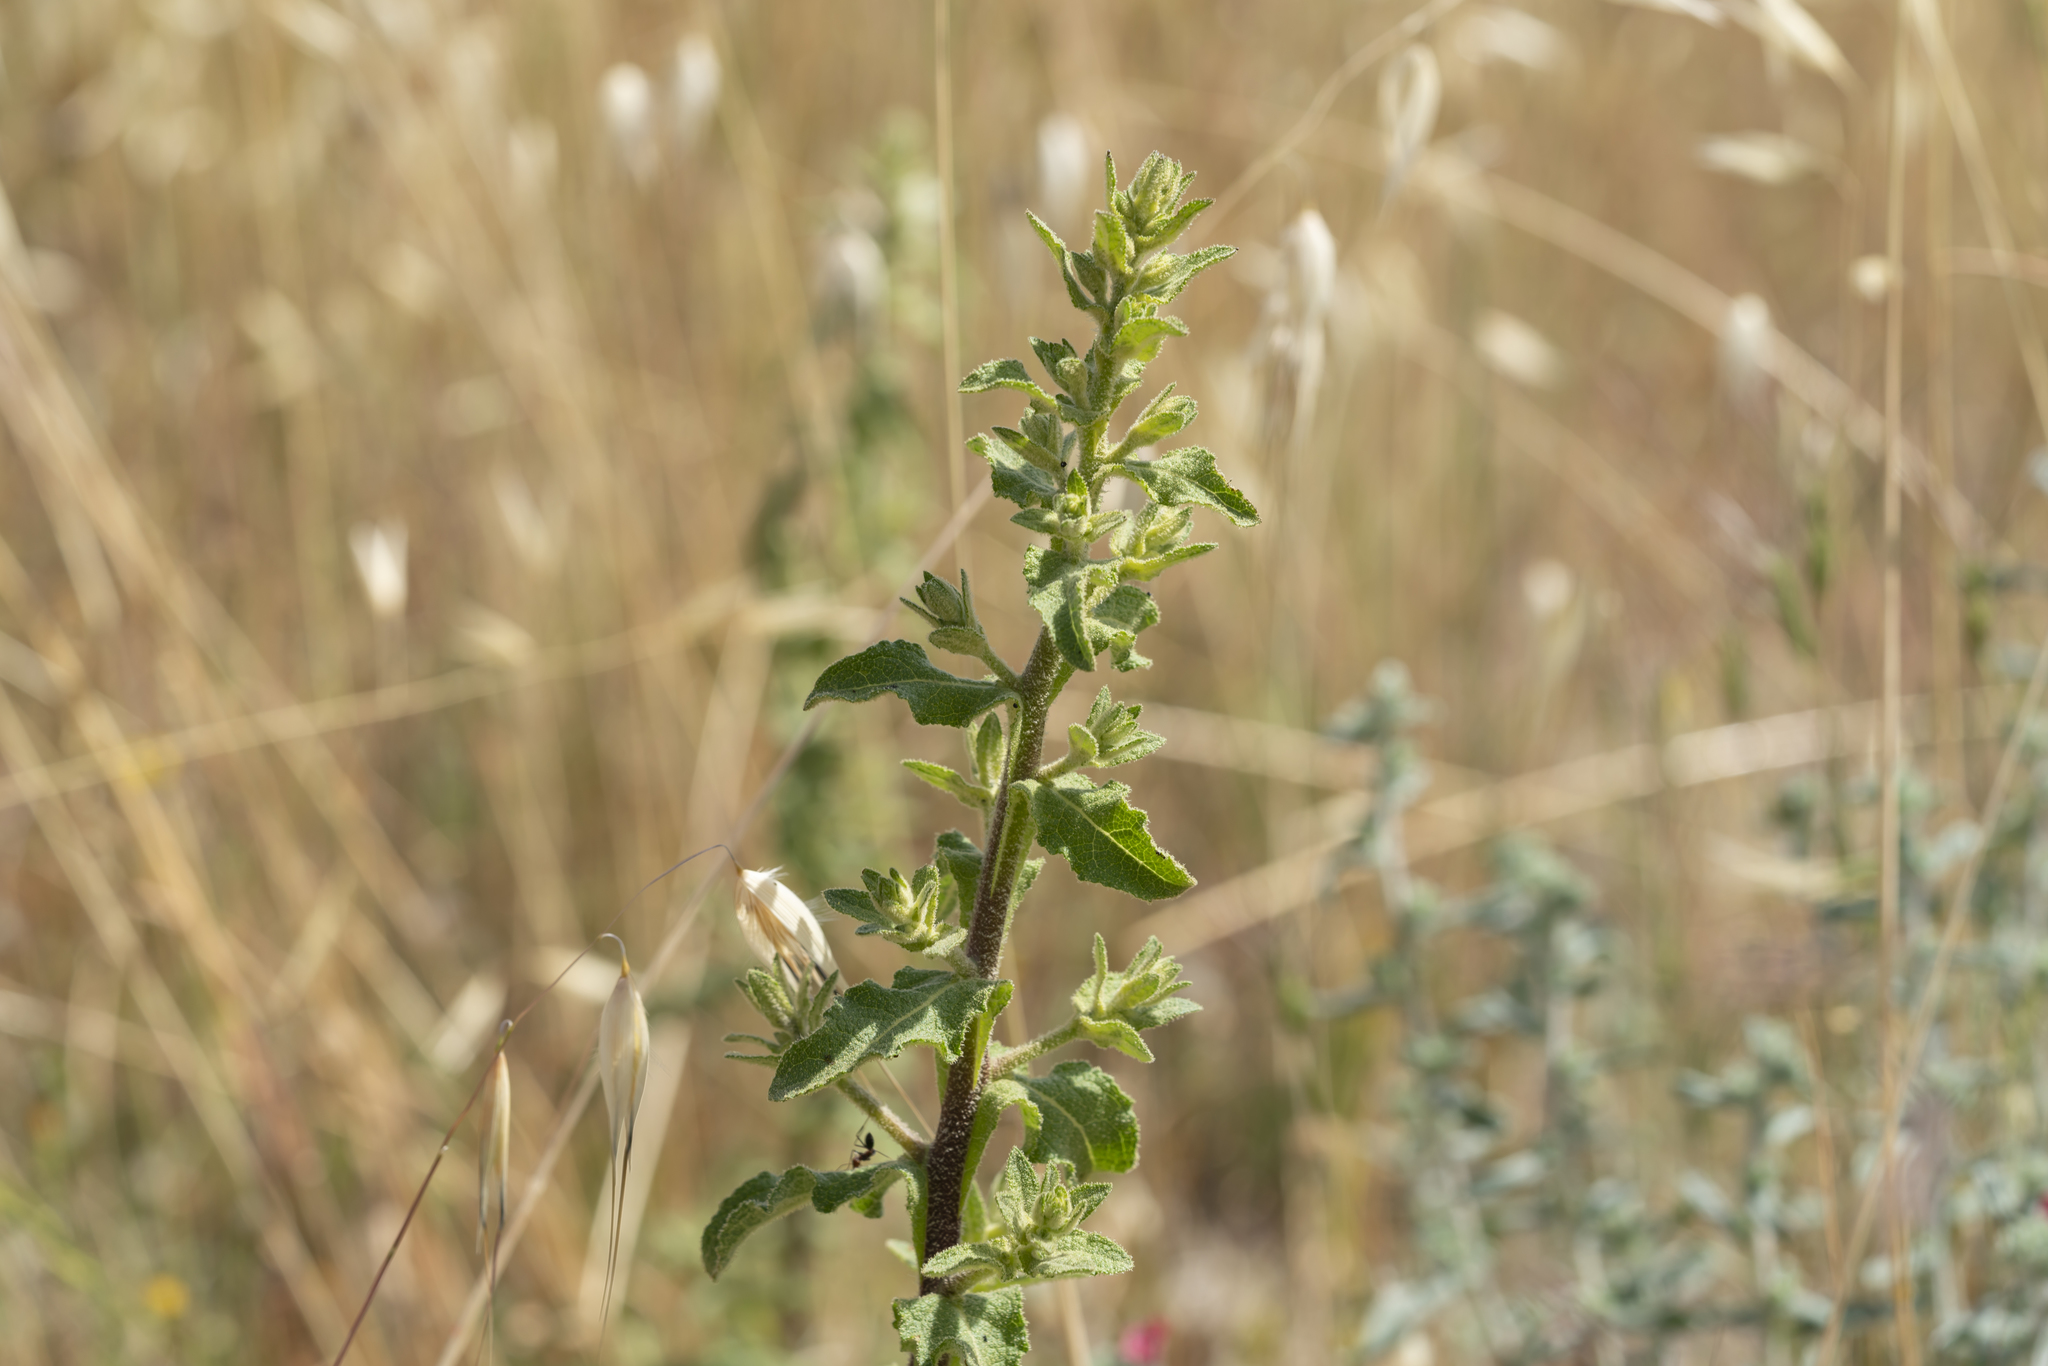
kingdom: Plantae
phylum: Tracheophyta
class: Magnoliopsida
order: Lamiales
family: Scrophulariaceae
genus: Verbascum
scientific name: Verbascum sinuatum
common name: Wavyleaf mullein
